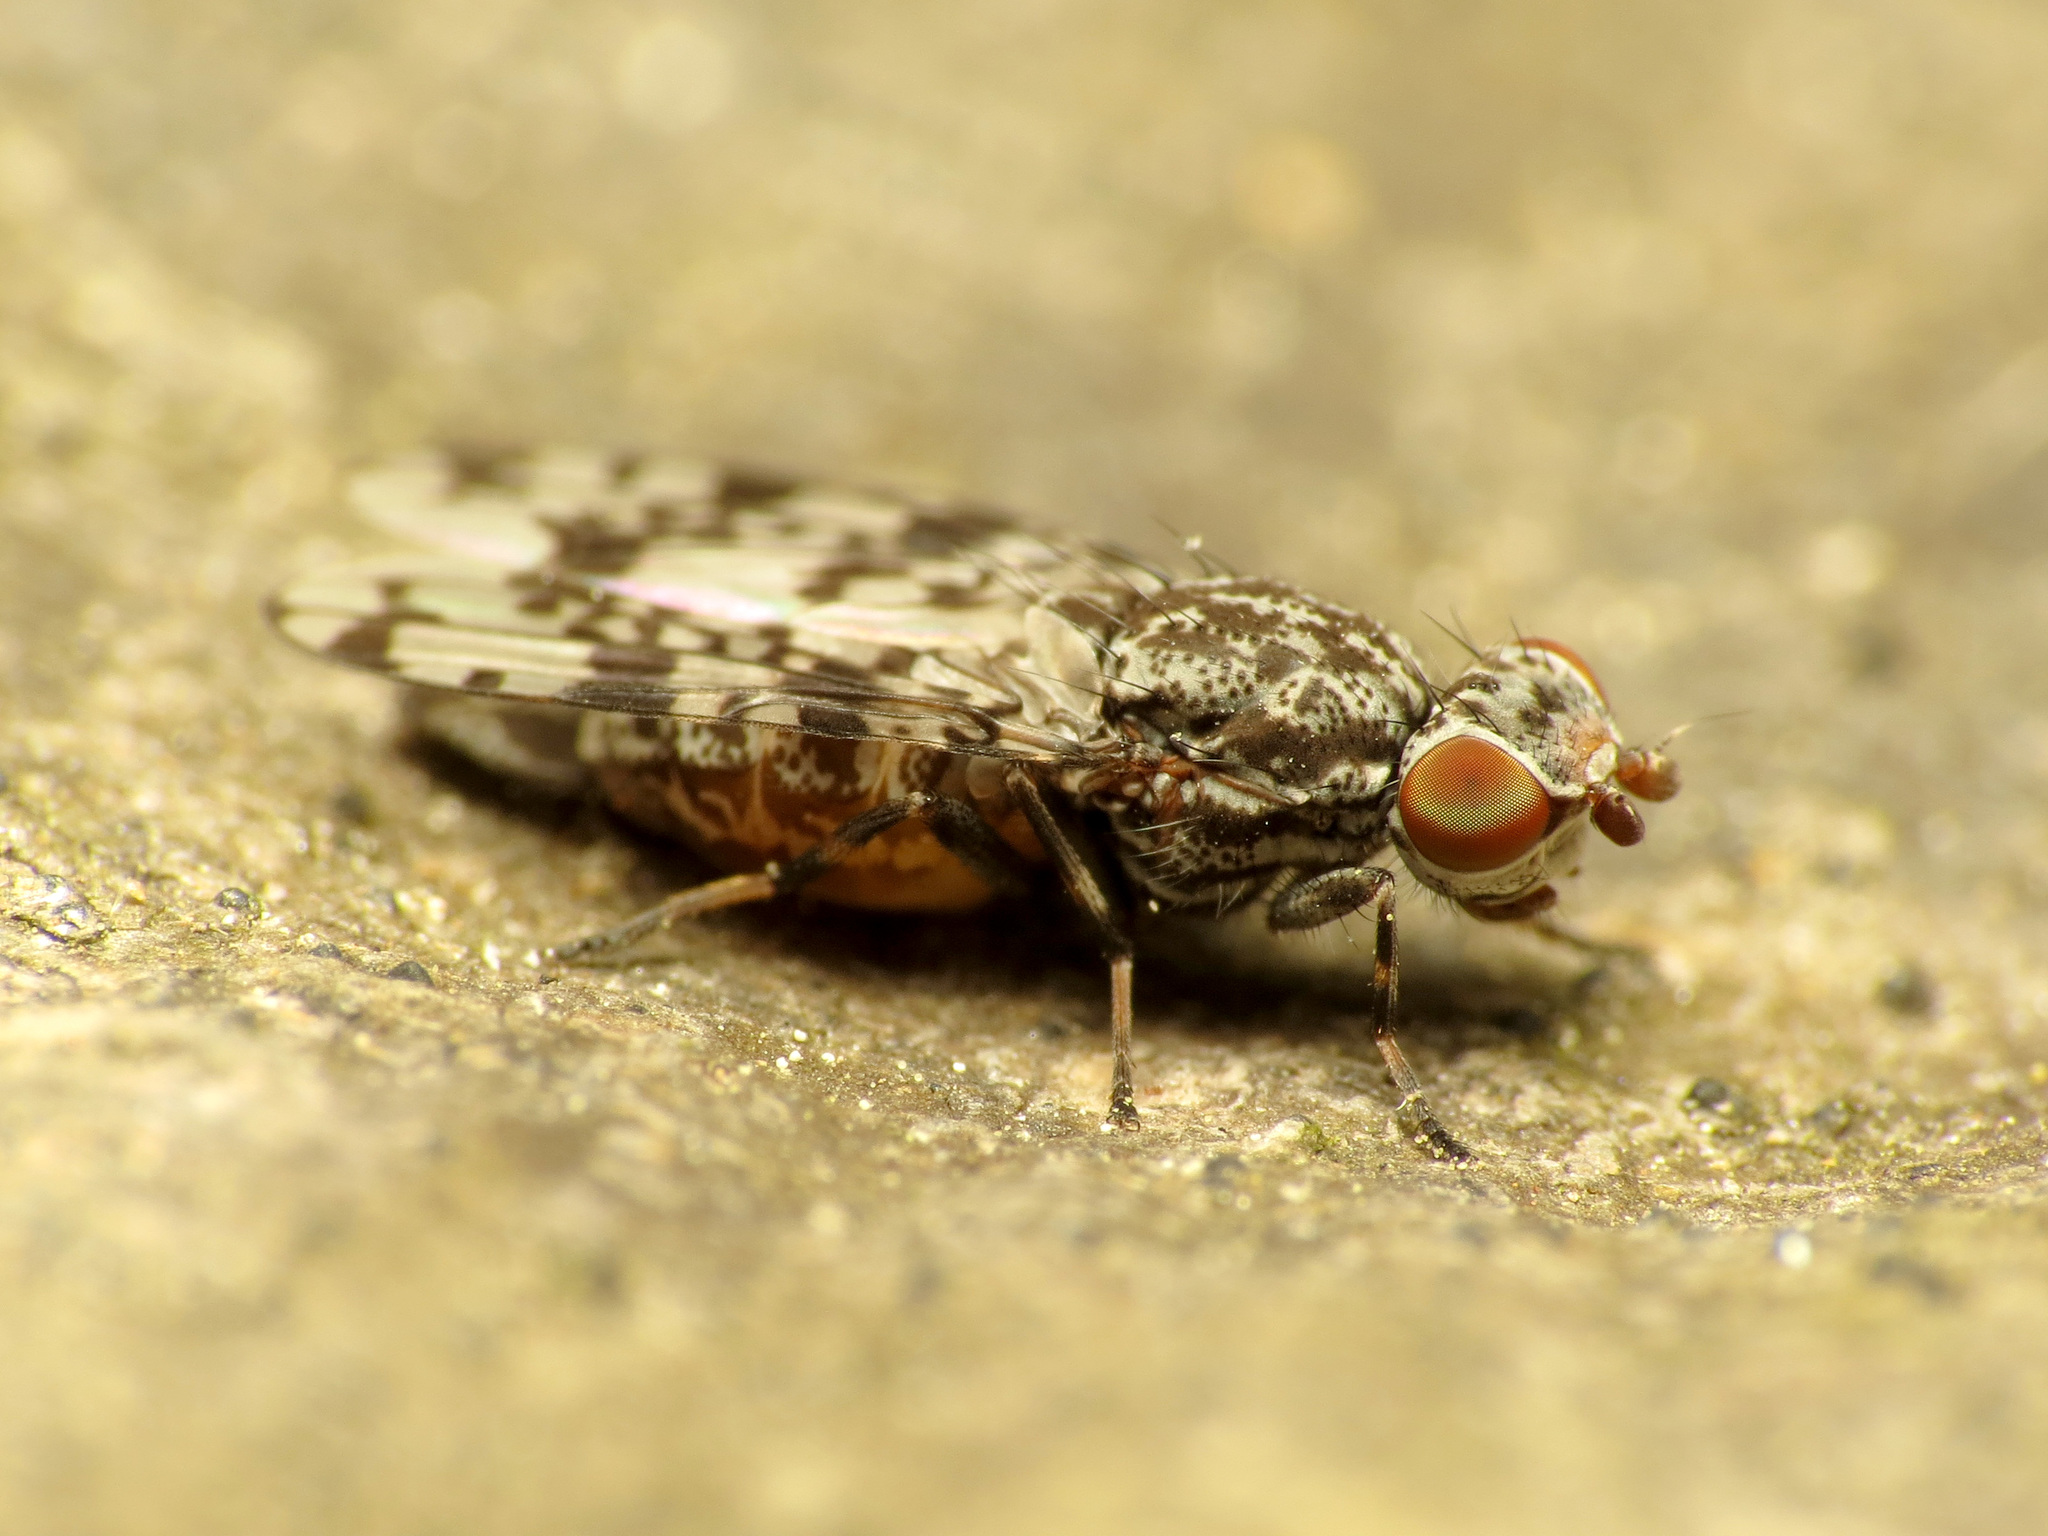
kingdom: Animalia
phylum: Arthropoda
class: Insecta
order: Diptera
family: Ulidiidae
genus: Pseudotephritis
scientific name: Pseudotephritis corticalis
